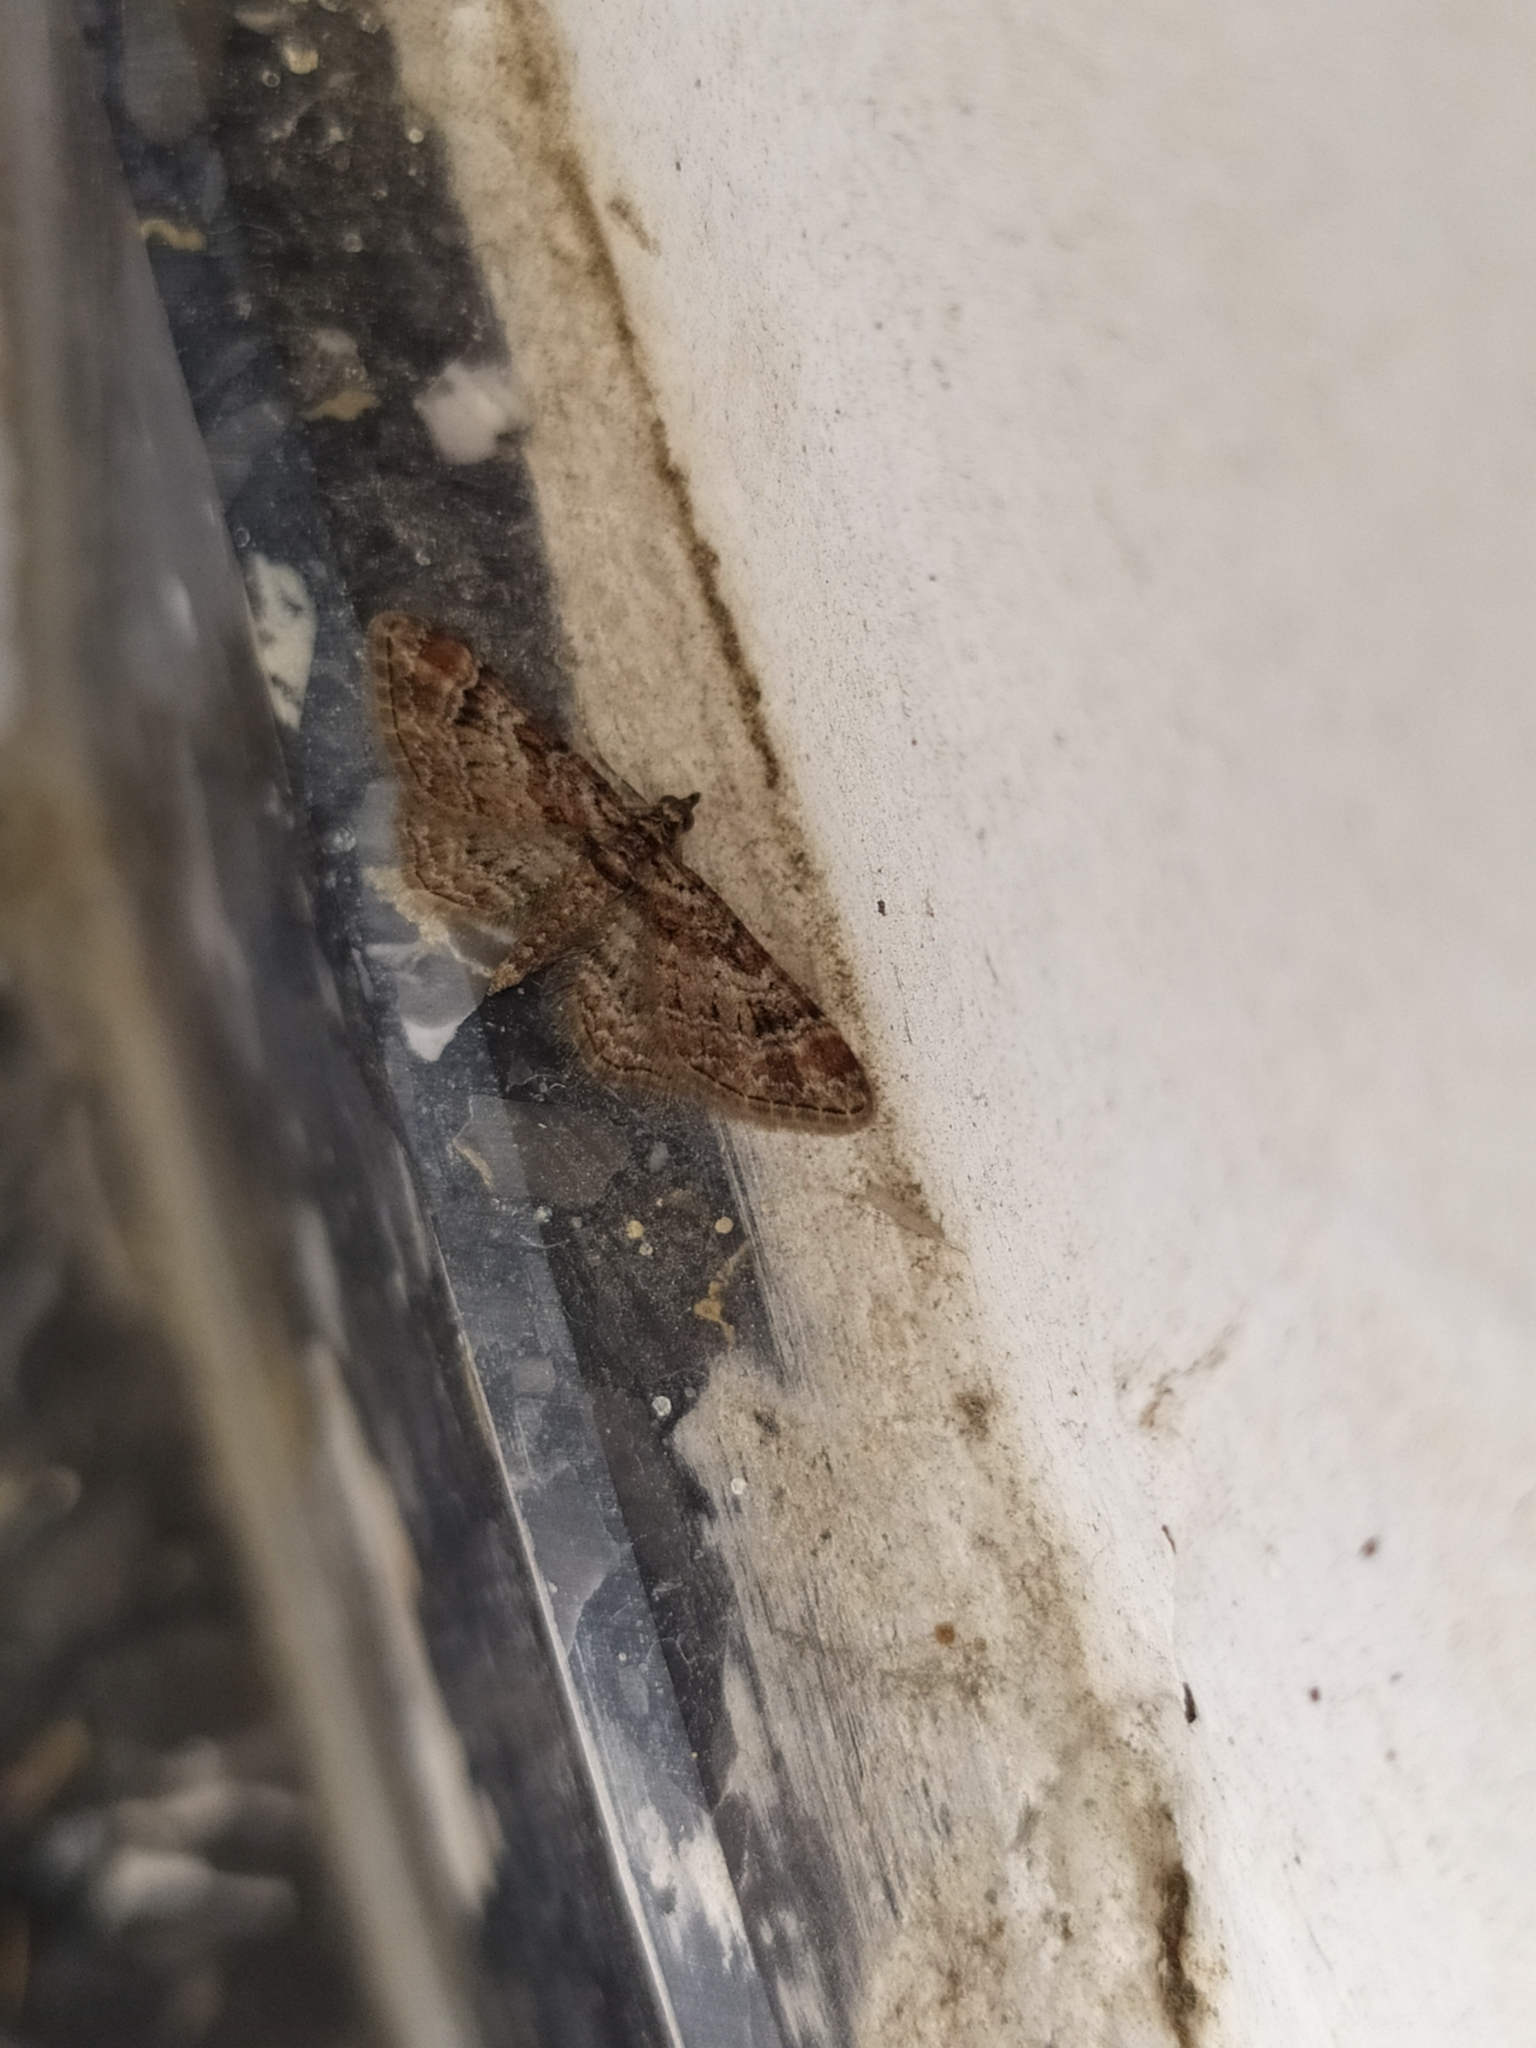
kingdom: Animalia
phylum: Arthropoda
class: Insecta
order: Lepidoptera
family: Geometridae
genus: Gymnoscelis
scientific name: Gymnoscelis rufifasciata
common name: Double-striped pug
